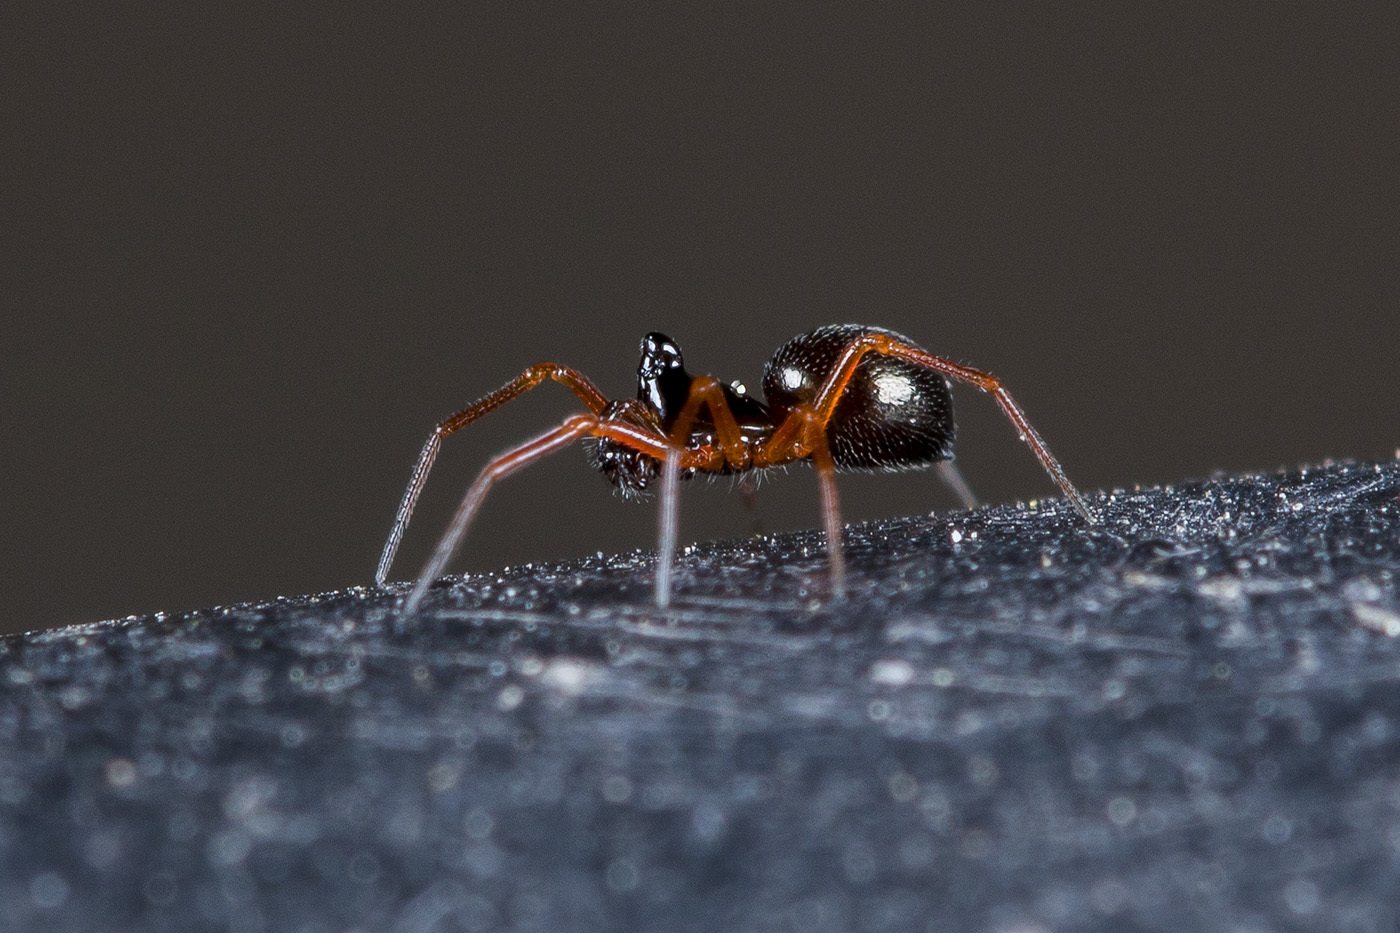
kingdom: Animalia
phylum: Arthropoda
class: Arachnida
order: Araneae
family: Linyphiidae
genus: Entelecara
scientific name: Entelecara acuminata
